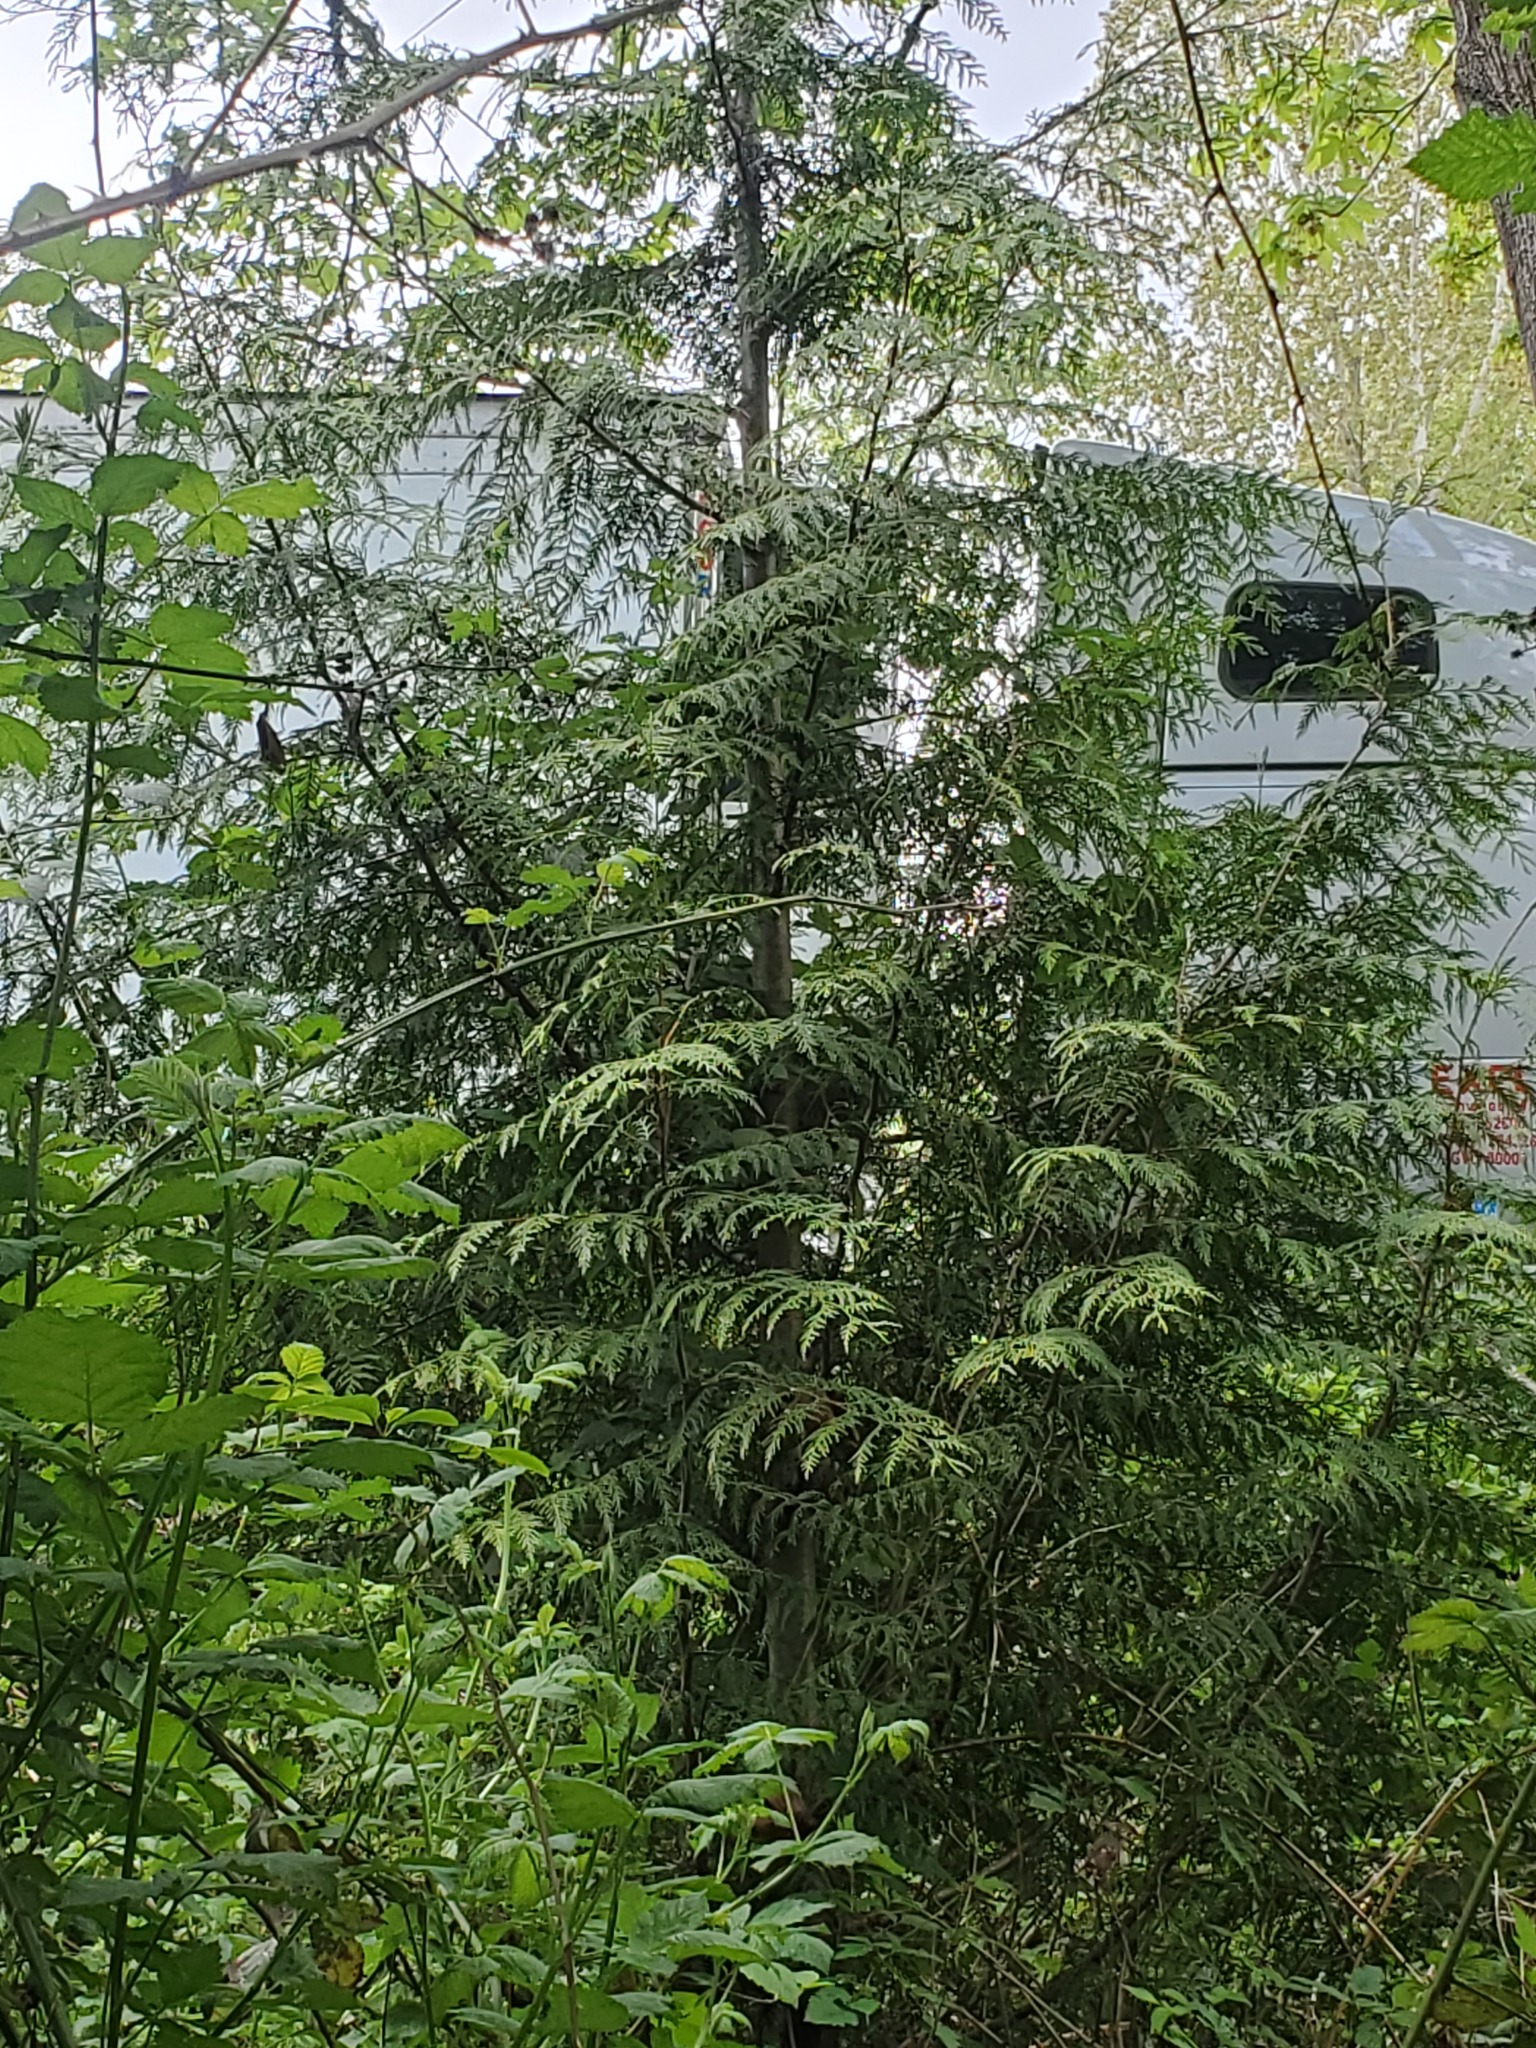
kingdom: Plantae
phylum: Tracheophyta
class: Pinopsida
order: Pinales
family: Cupressaceae
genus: Thuja
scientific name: Thuja plicata
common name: Western red-cedar
